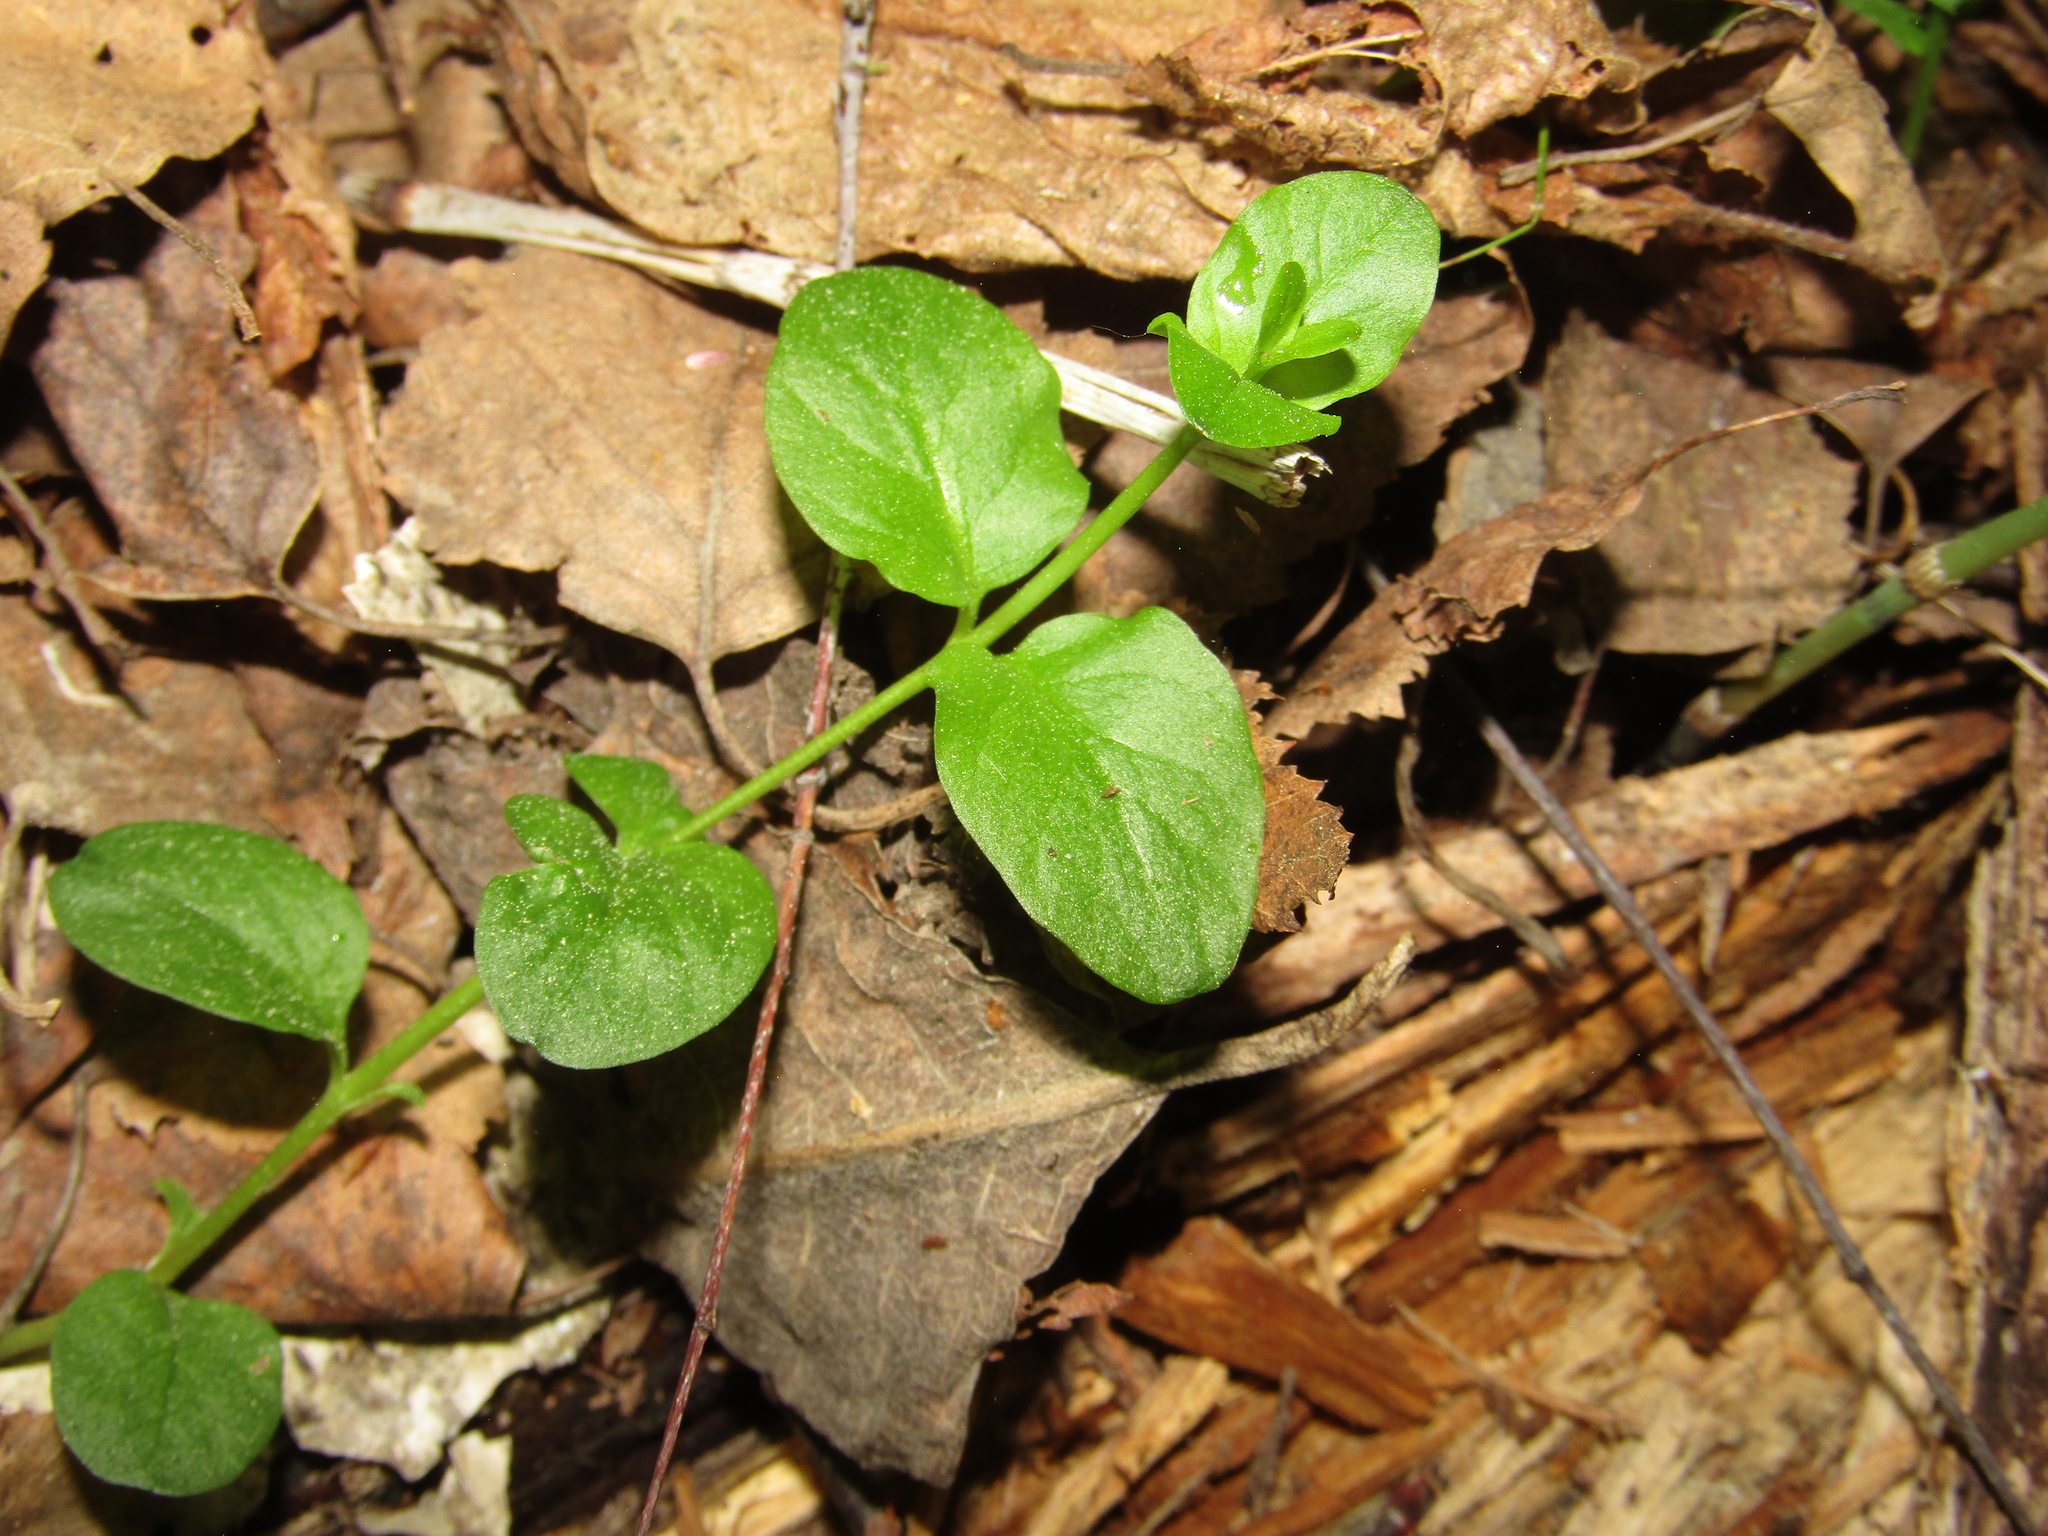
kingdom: Plantae
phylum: Tracheophyta
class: Magnoliopsida
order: Ericales
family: Primulaceae
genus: Lysimachia
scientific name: Lysimachia nummularia
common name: Moneywort
